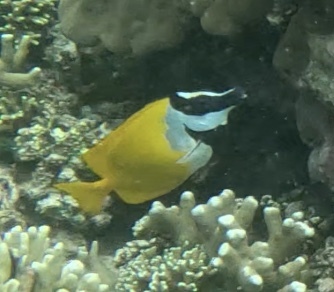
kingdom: Animalia
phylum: Chordata
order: Perciformes
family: Siganidae
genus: Siganus
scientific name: Siganus vulpinus
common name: Foxface
